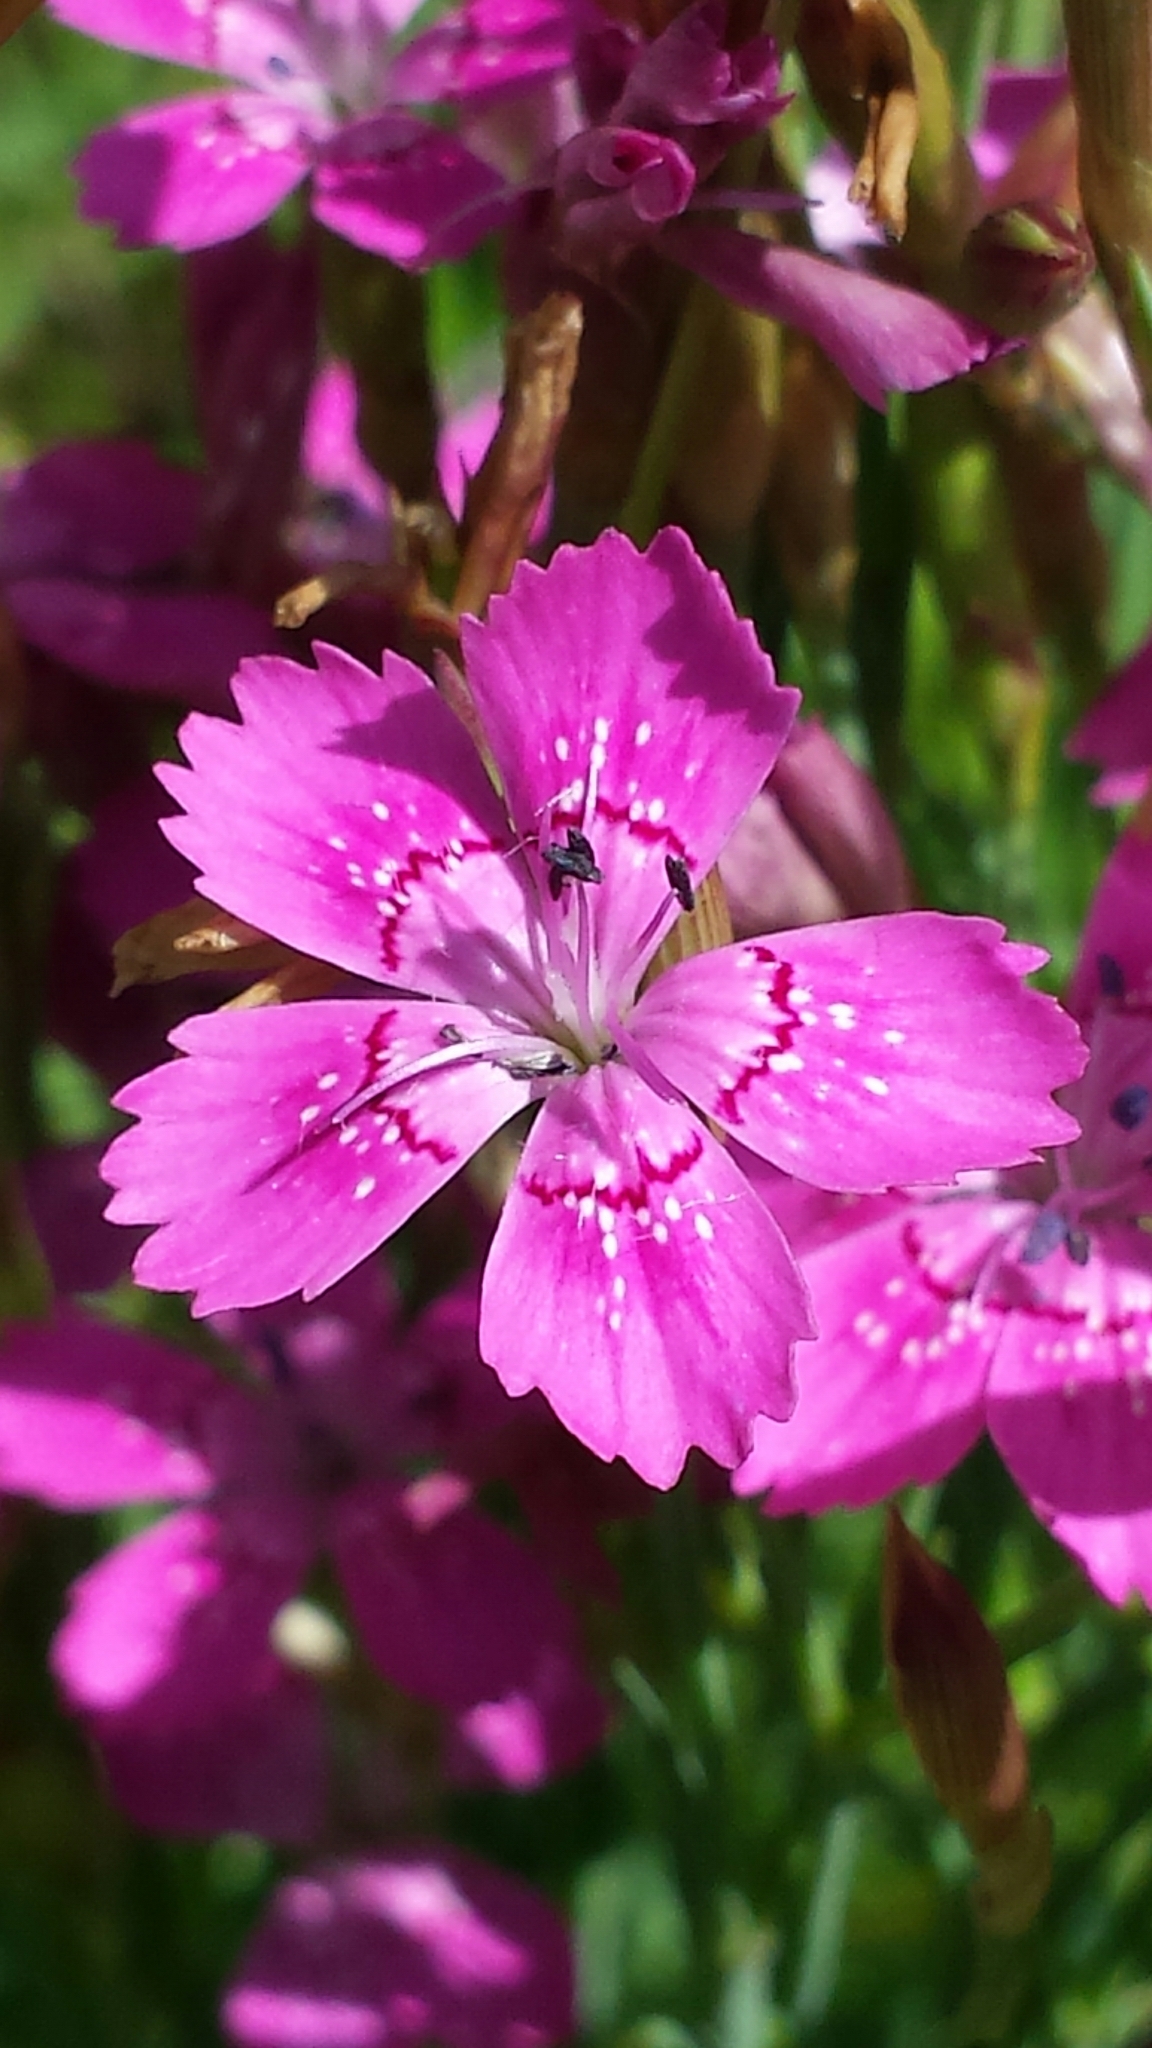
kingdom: Plantae
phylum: Tracheophyta
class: Magnoliopsida
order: Caryophyllales
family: Caryophyllaceae
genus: Dianthus
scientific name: Dianthus deltoides
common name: Maiden pink
